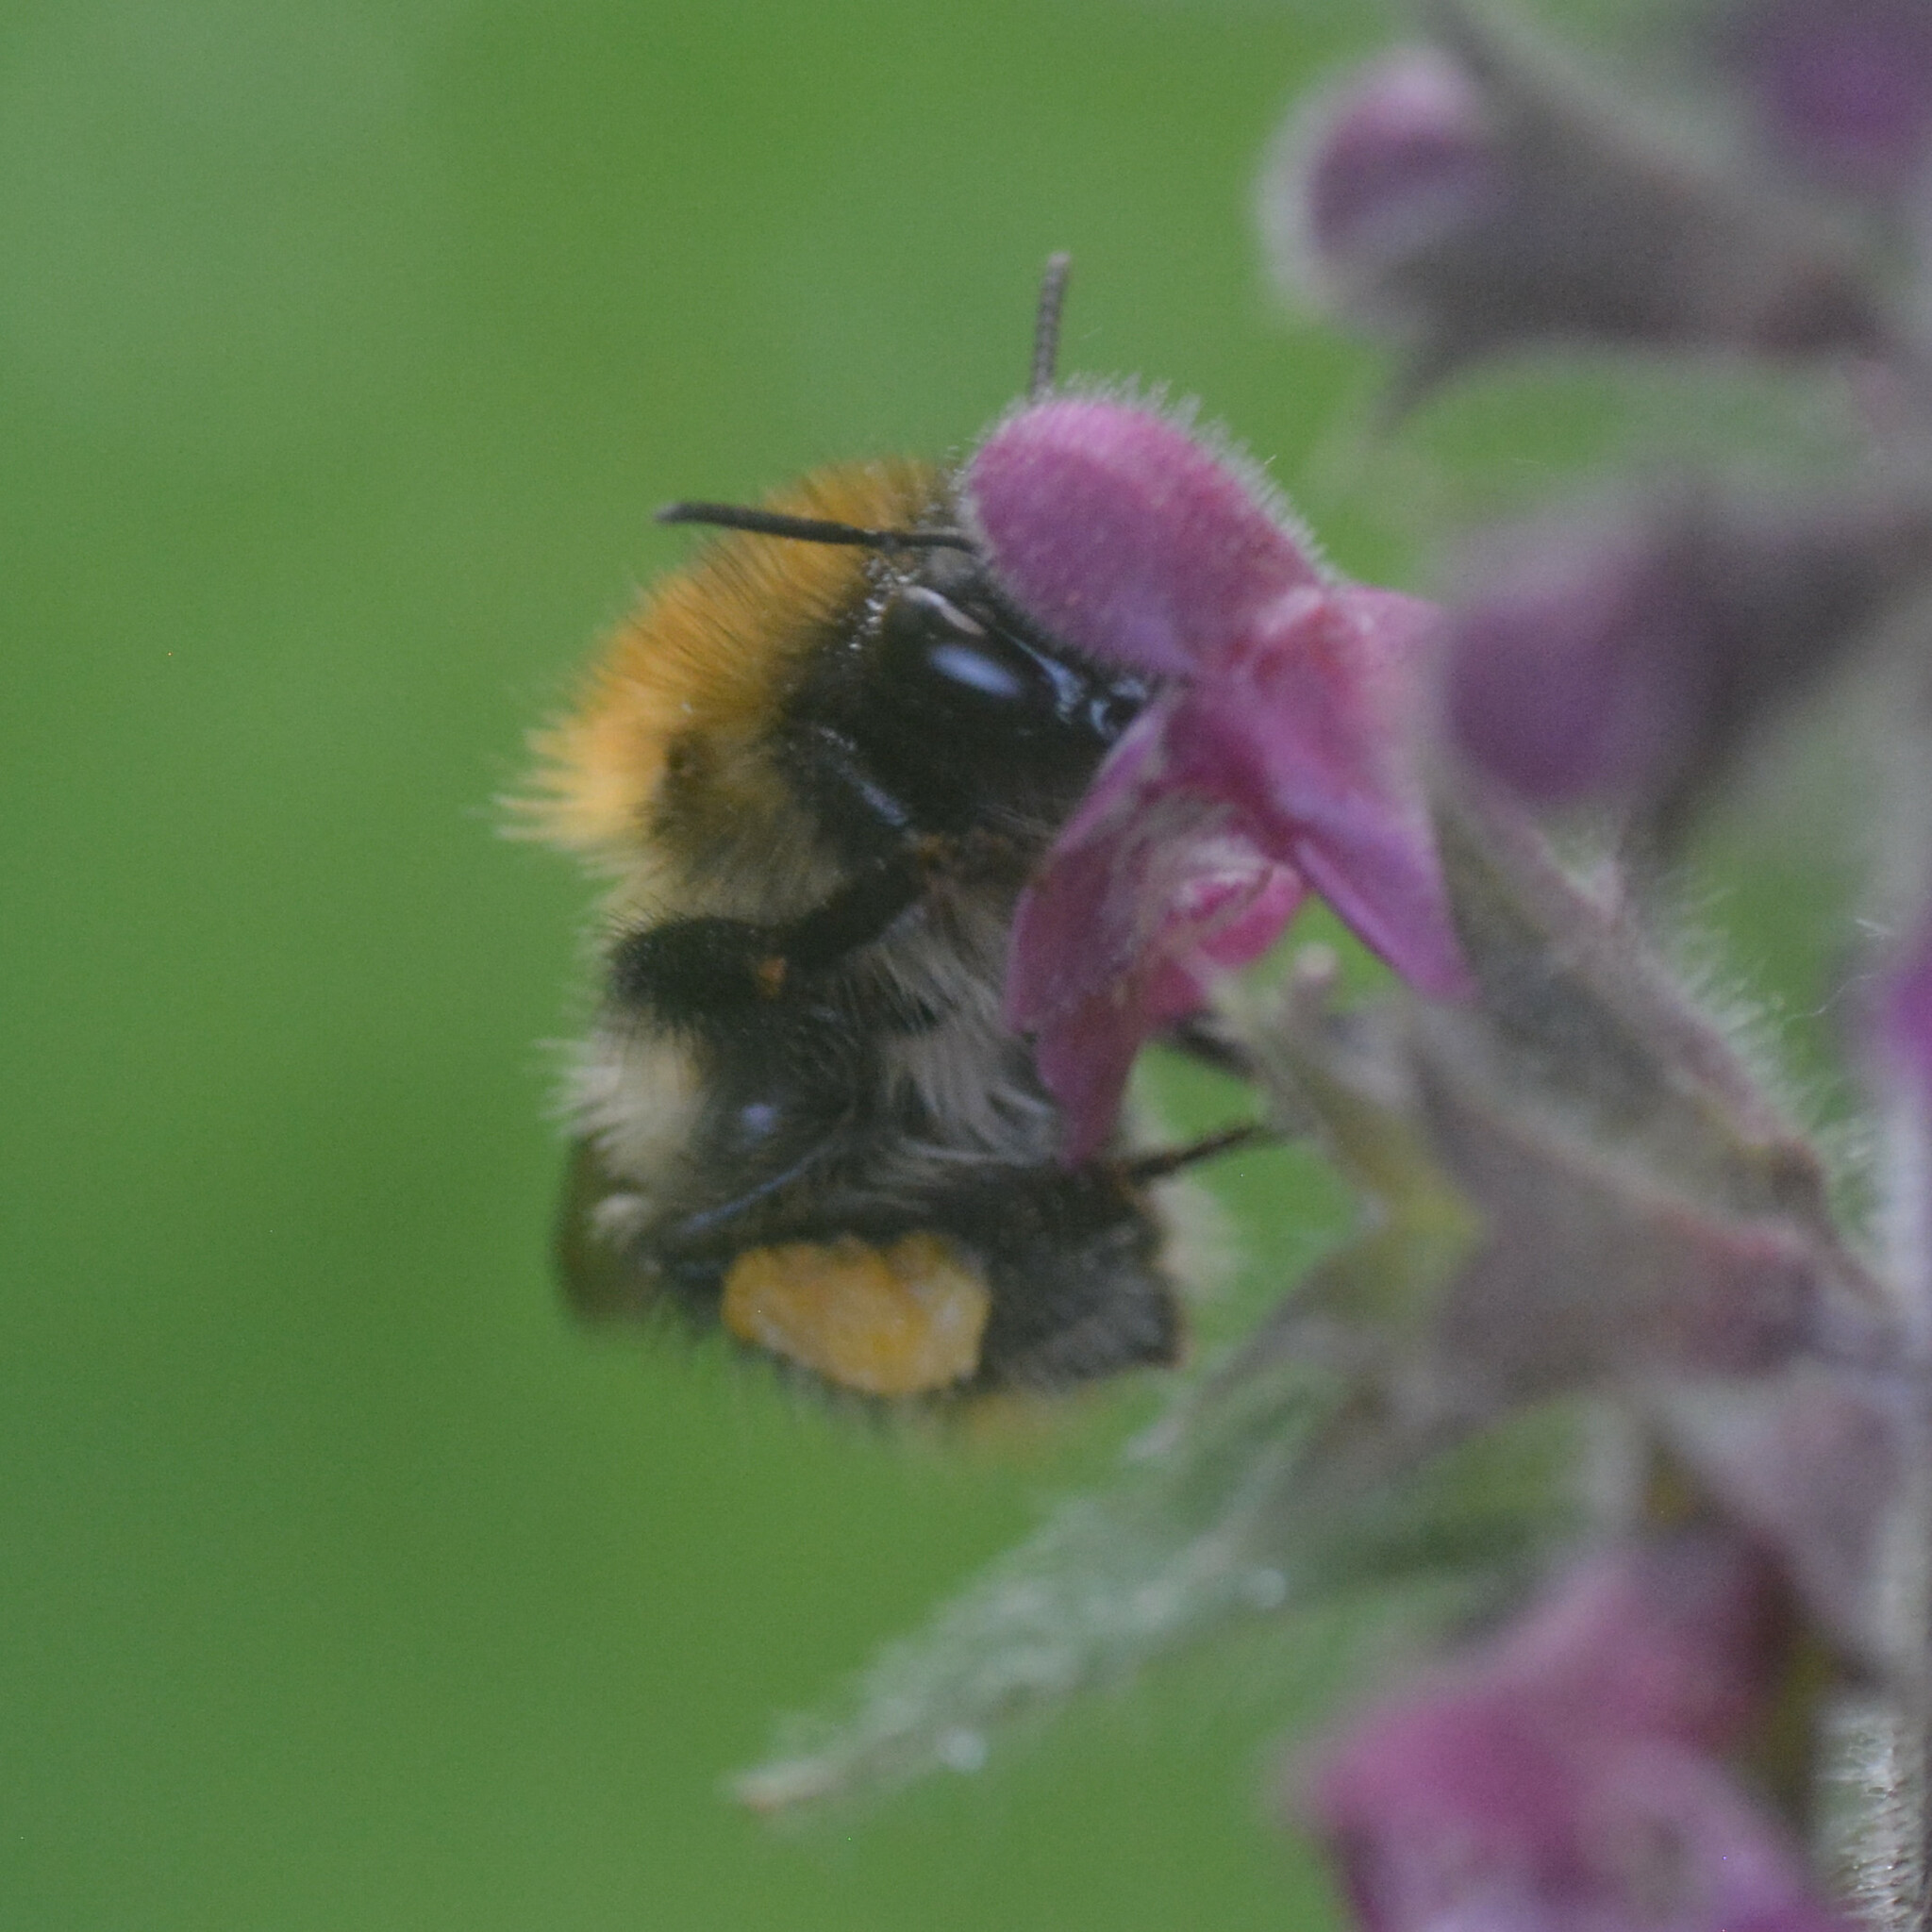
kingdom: Animalia
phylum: Arthropoda
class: Insecta
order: Hymenoptera
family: Apidae
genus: Bombus
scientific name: Bombus pascuorum
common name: Common carder bee
